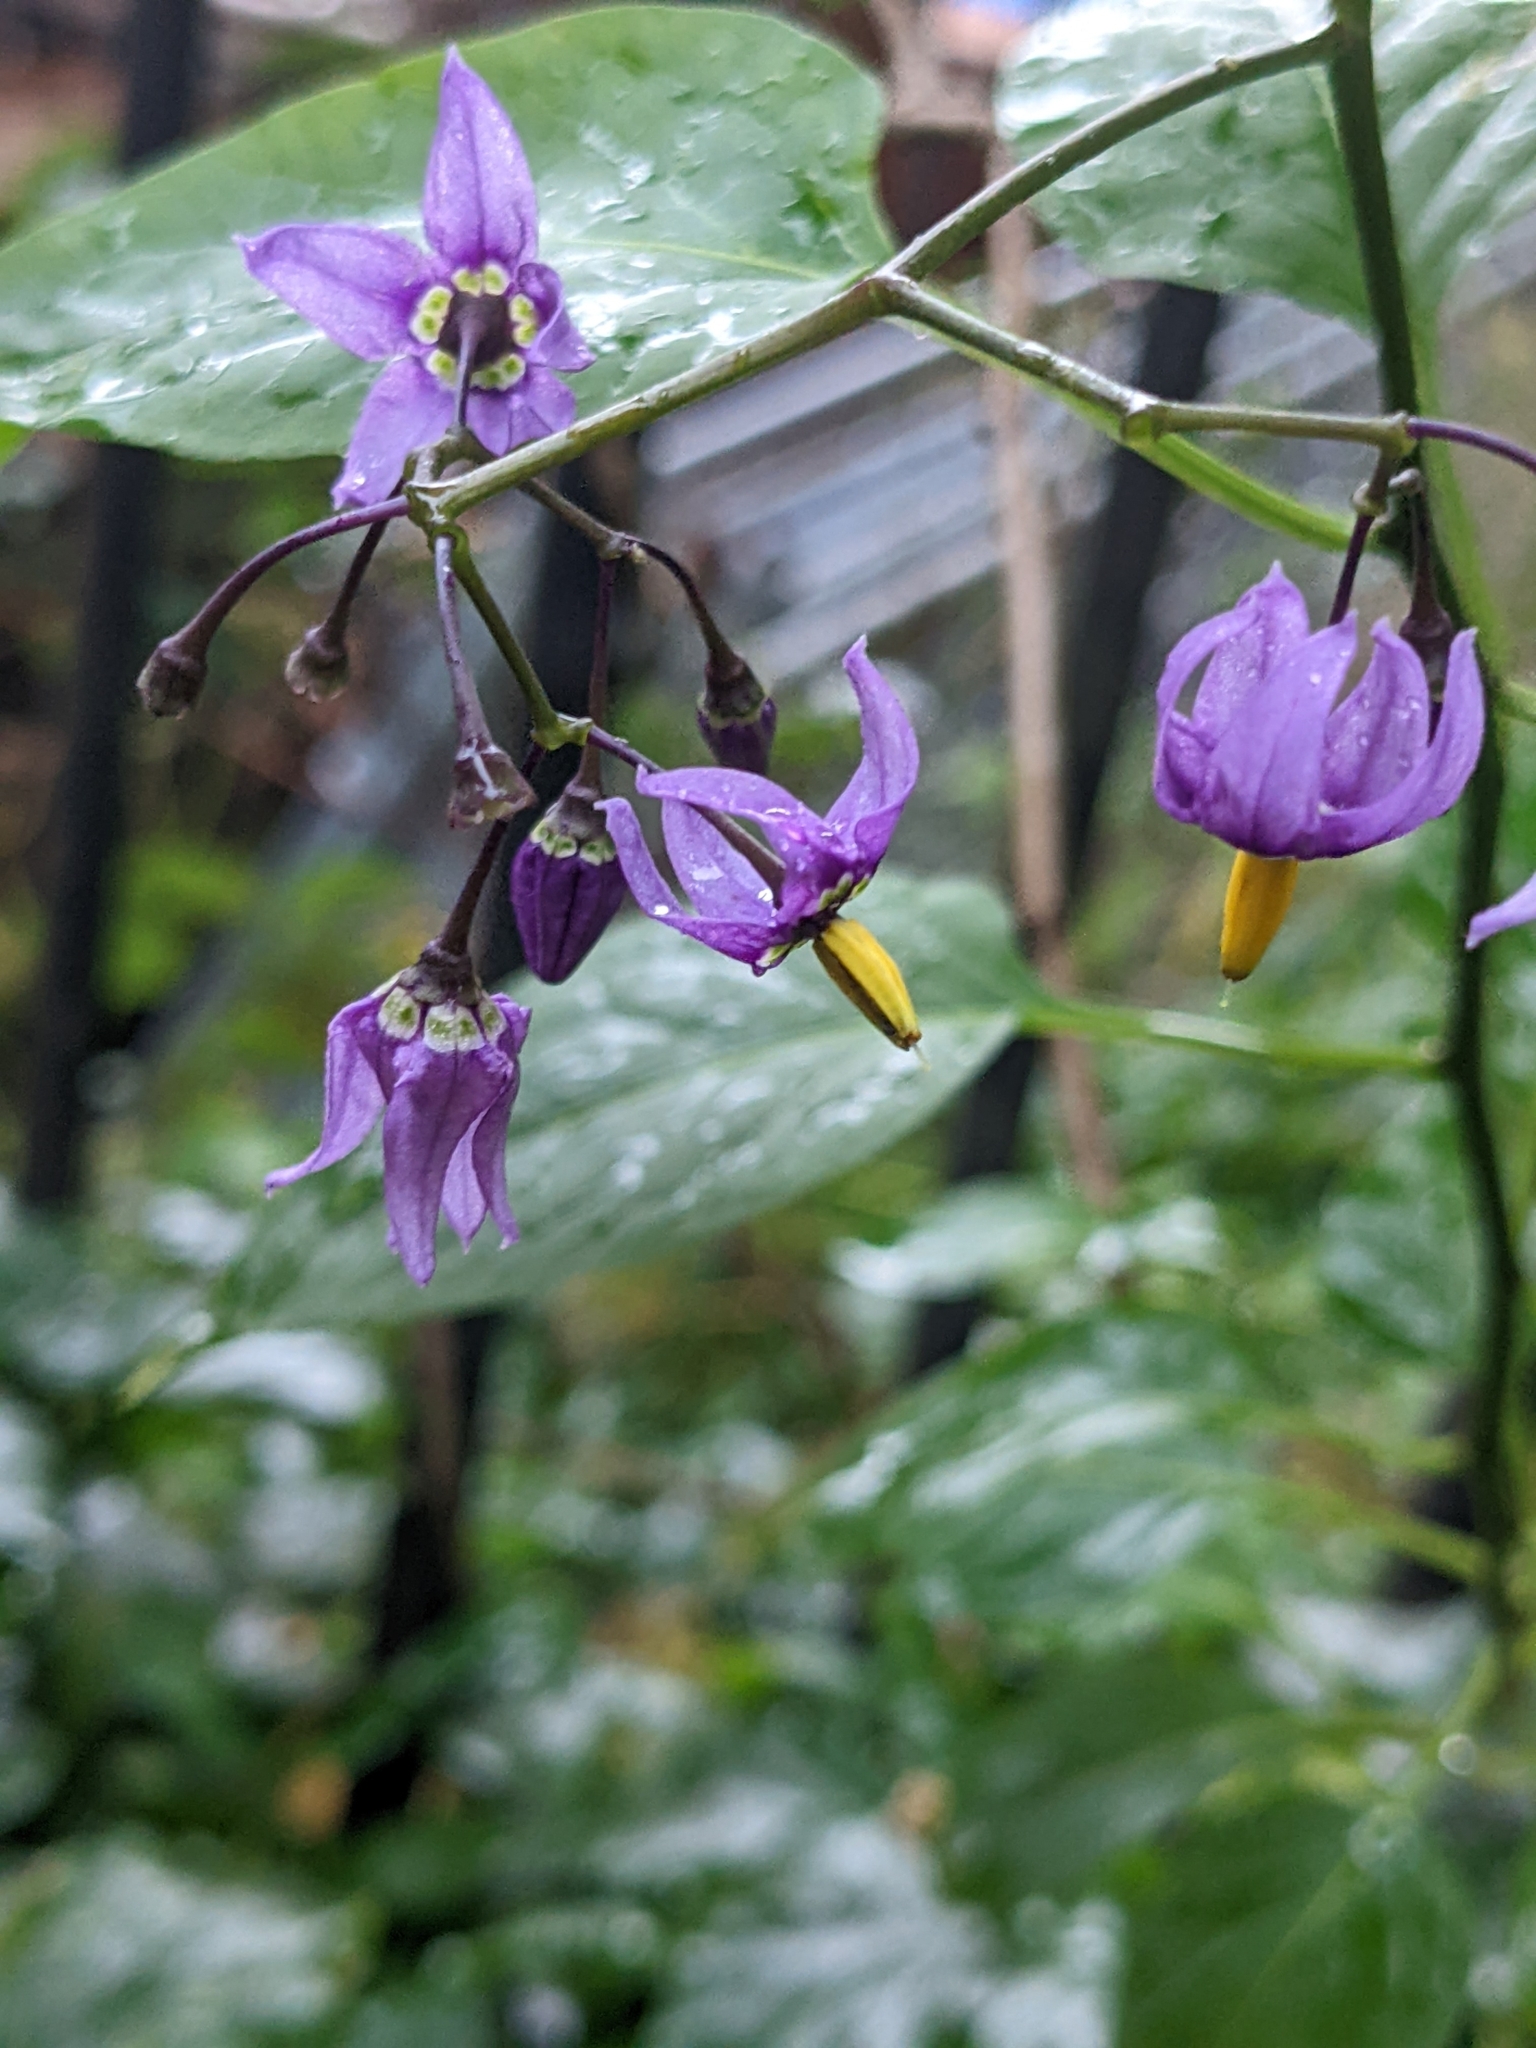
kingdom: Plantae
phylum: Tracheophyta
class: Magnoliopsida
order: Solanales
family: Solanaceae
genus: Solanum
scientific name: Solanum dulcamara
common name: Climbing nightshade
